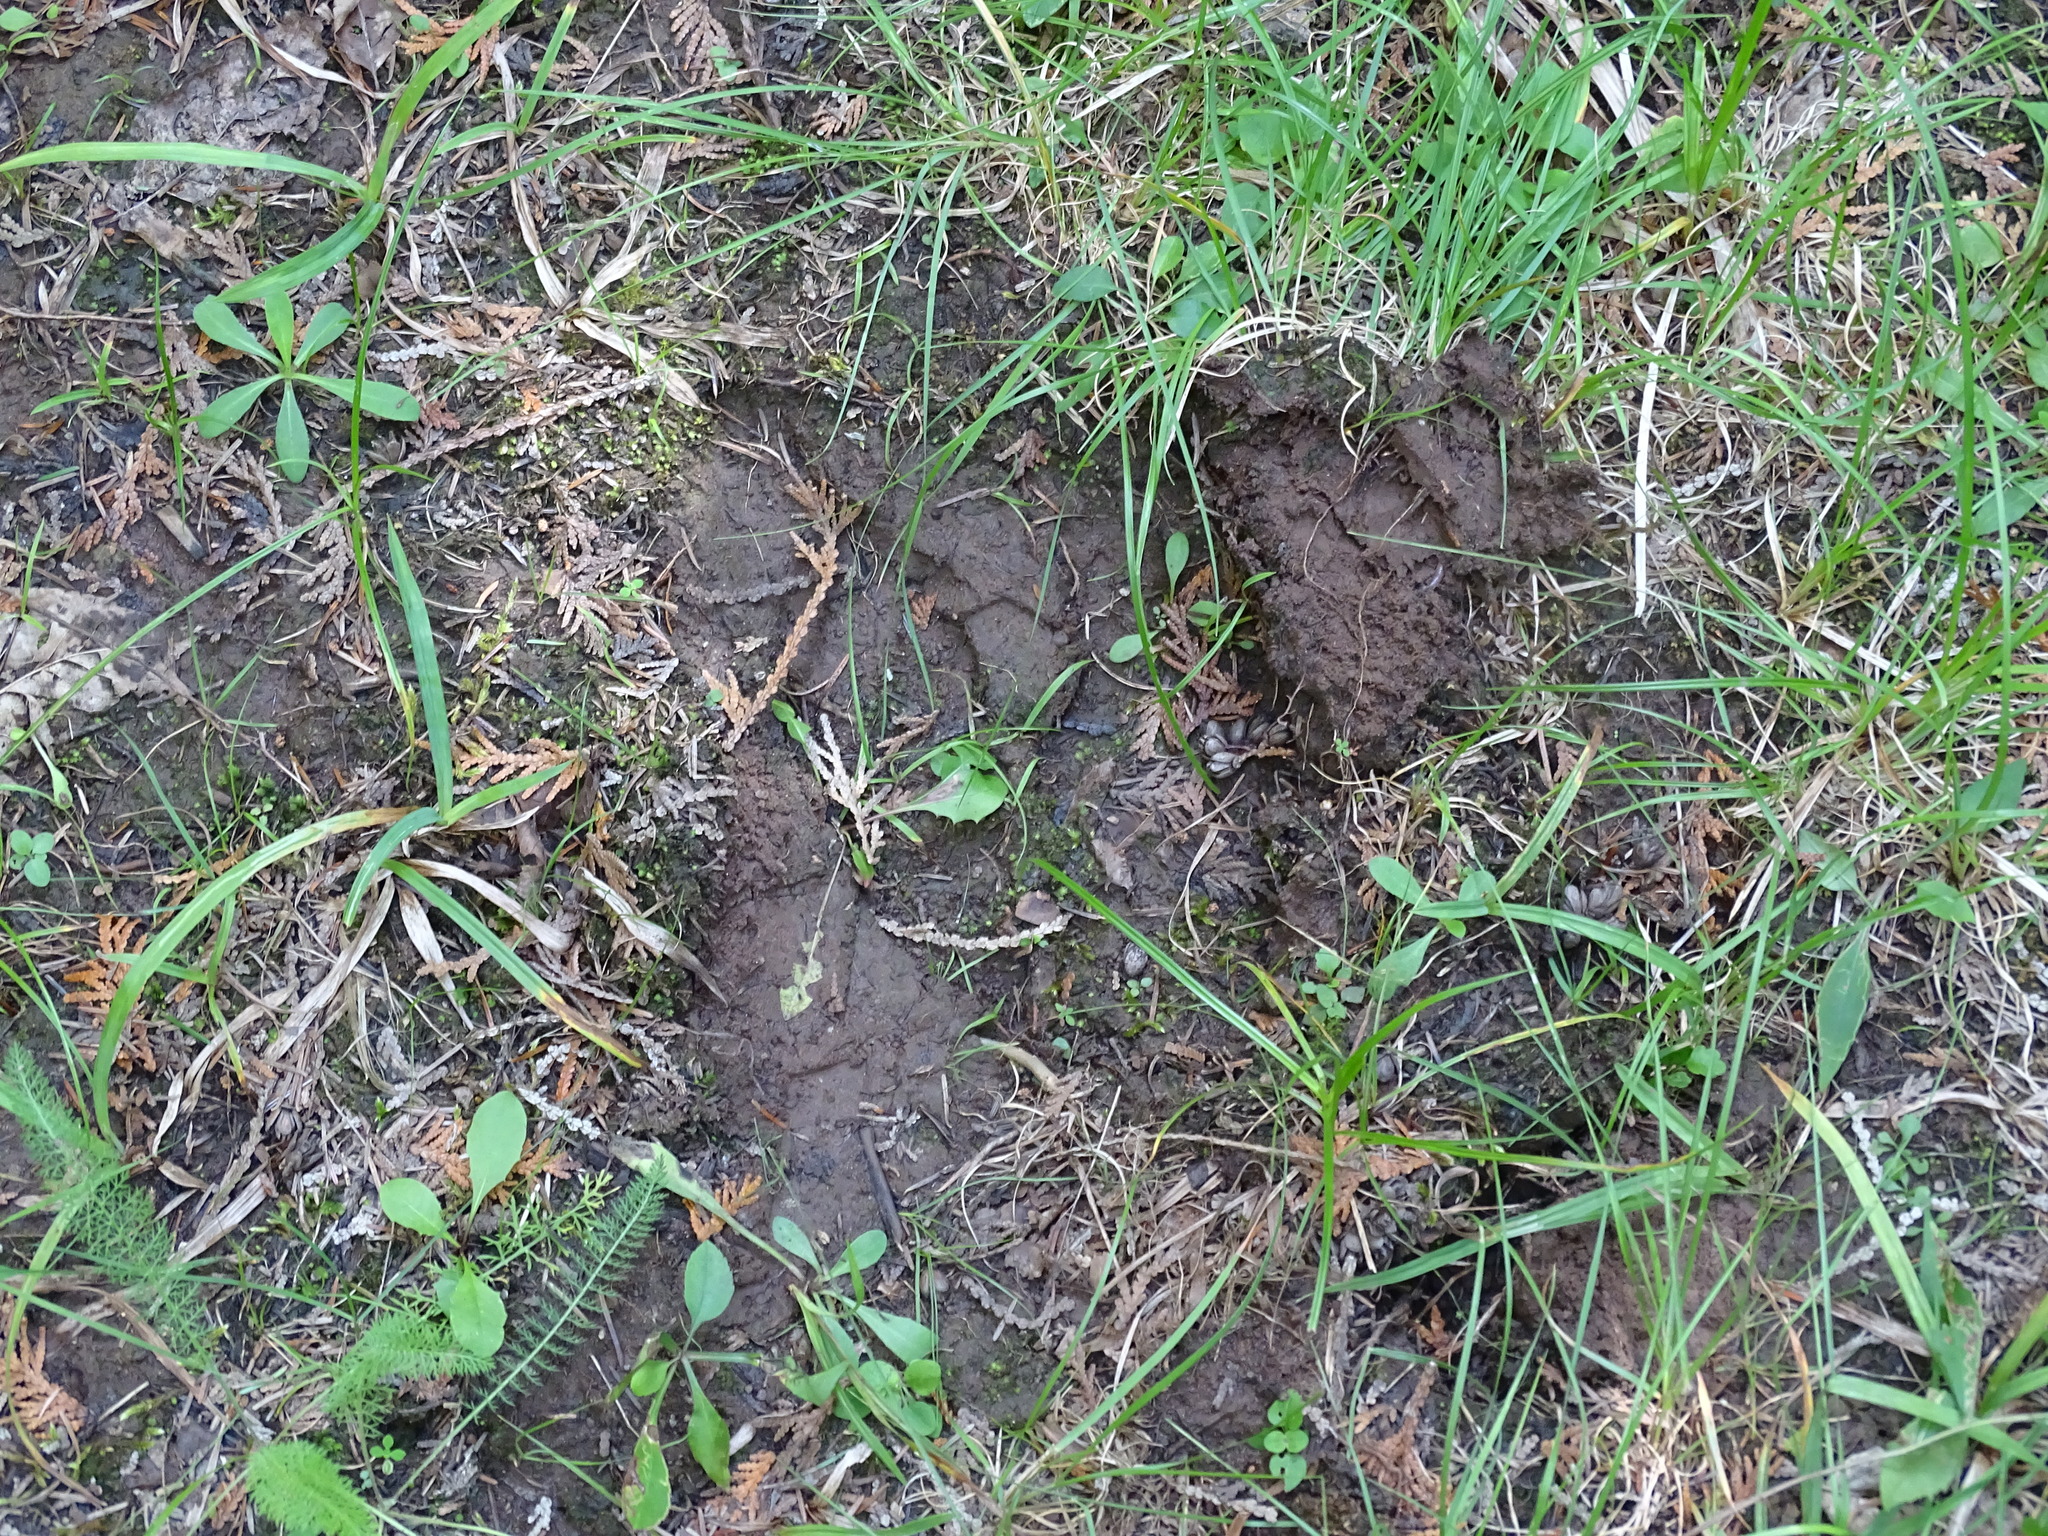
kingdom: Animalia
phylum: Chordata
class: Mammalia
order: Artiodactyla
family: Cervidae
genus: Alces
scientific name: Alces alces
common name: Moose
